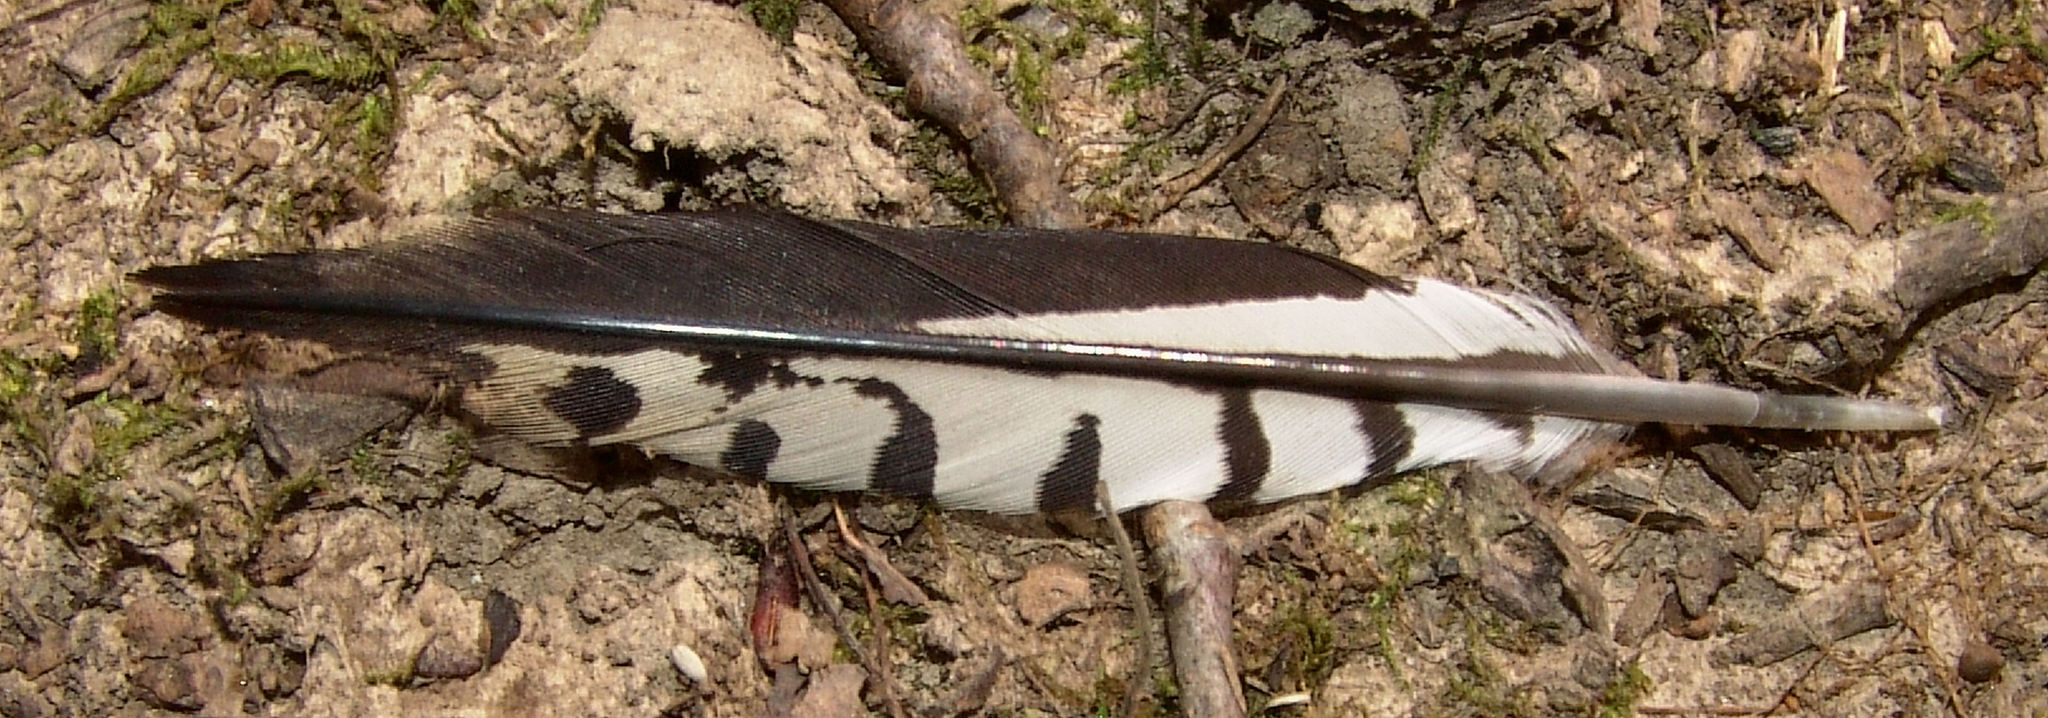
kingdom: Animalia
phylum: Chordata
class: Aves
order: Piciformes
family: Picidae
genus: Melanerpes
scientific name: Melanerpes carolinus
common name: Red-bellied woodpecker
